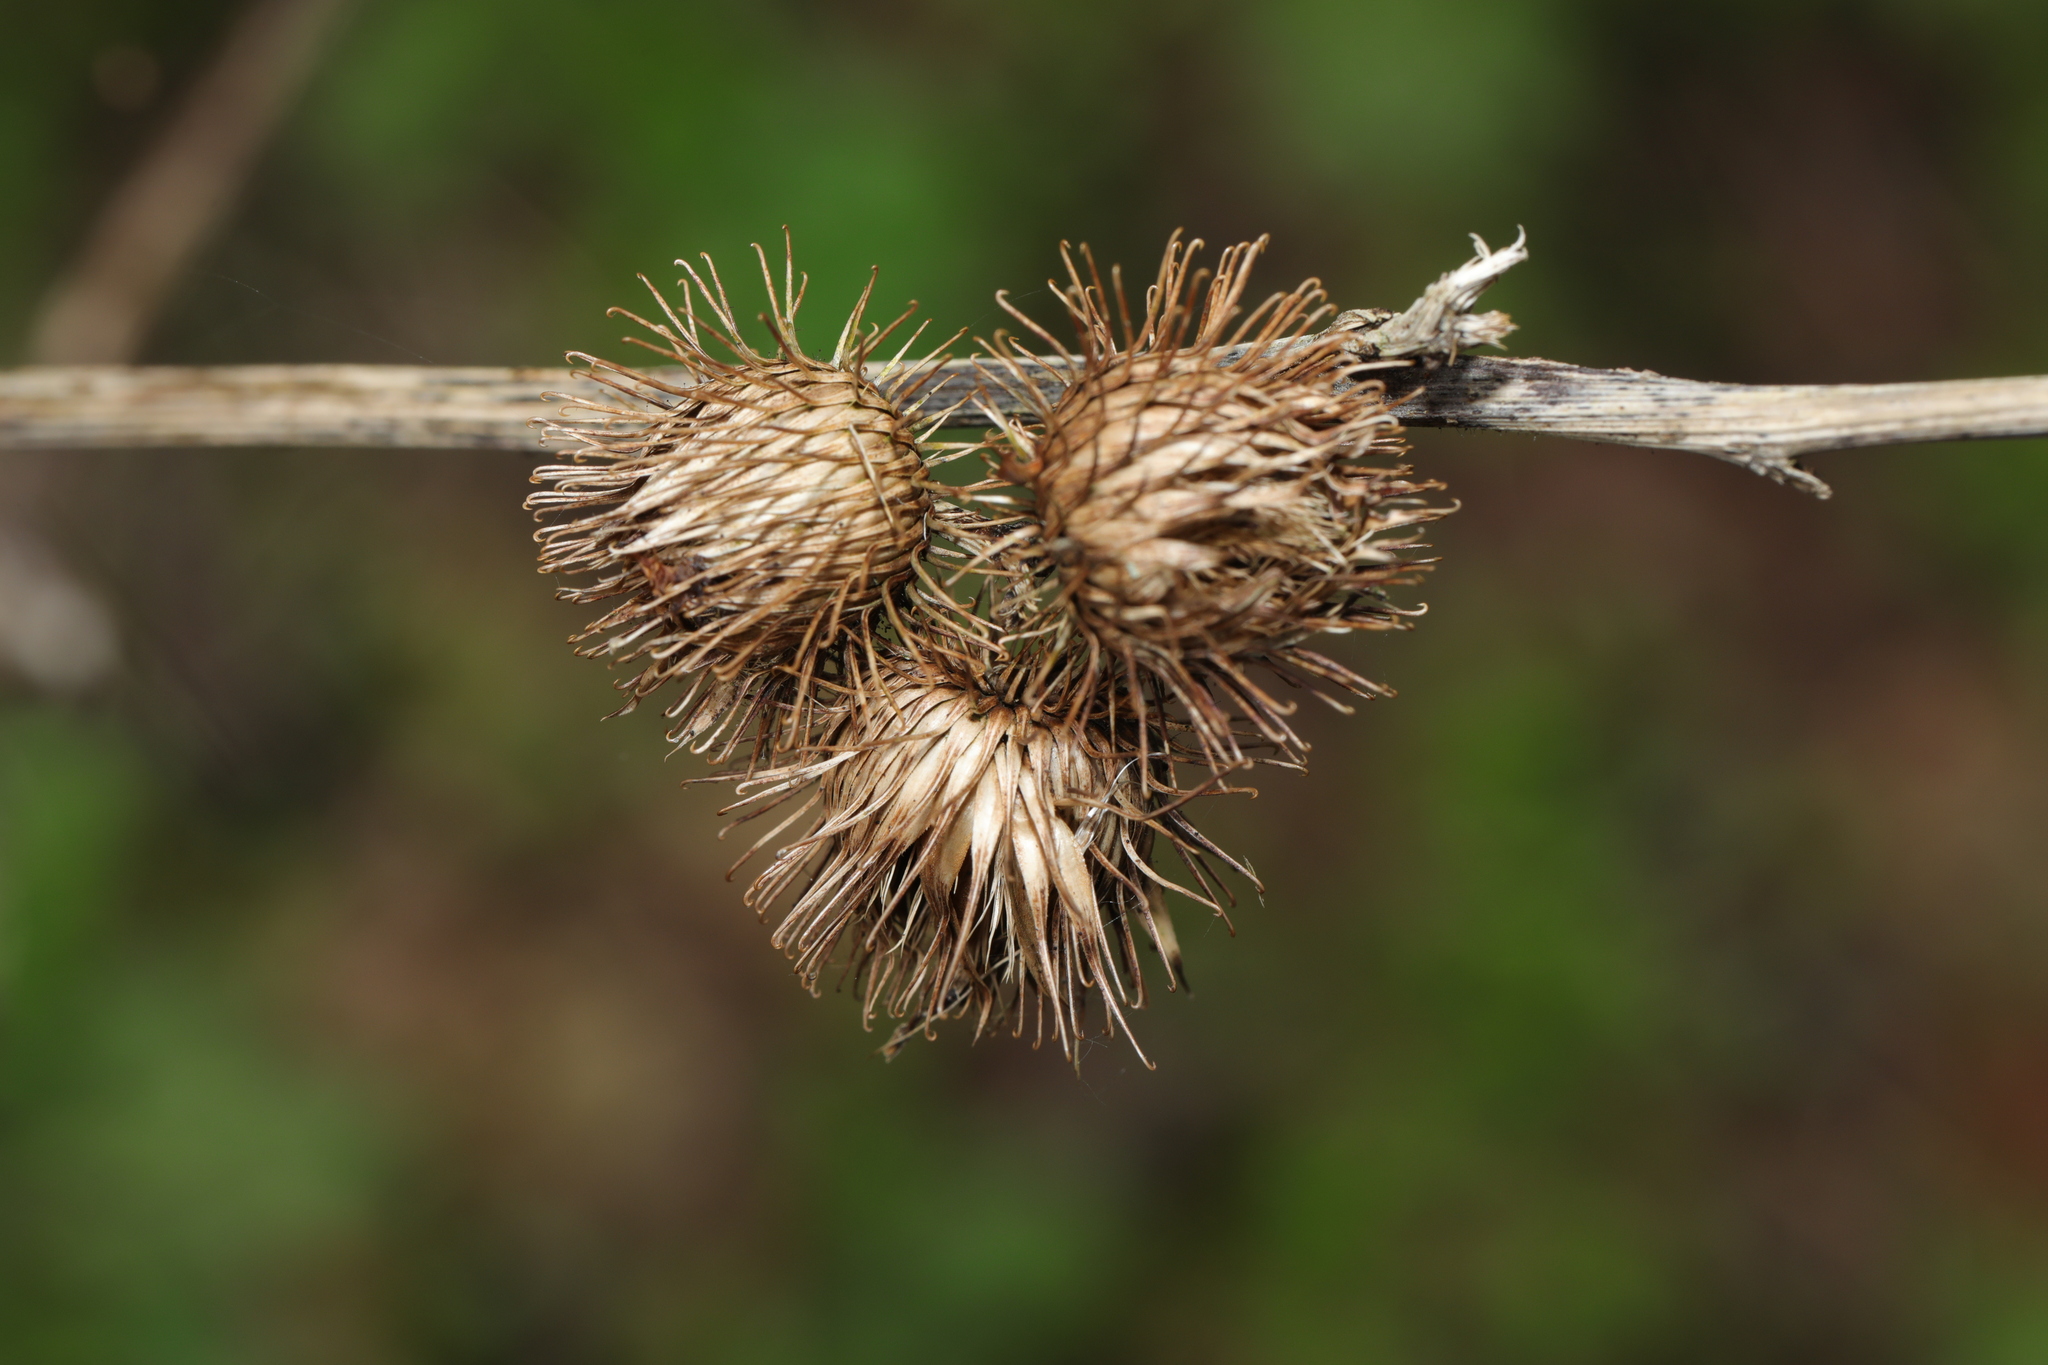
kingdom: Plantae
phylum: Tracheophyta
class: Magnoliopsida
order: Asterales
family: Asteraceae
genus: Arctium
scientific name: Arctium minus
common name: Lesser burdock
